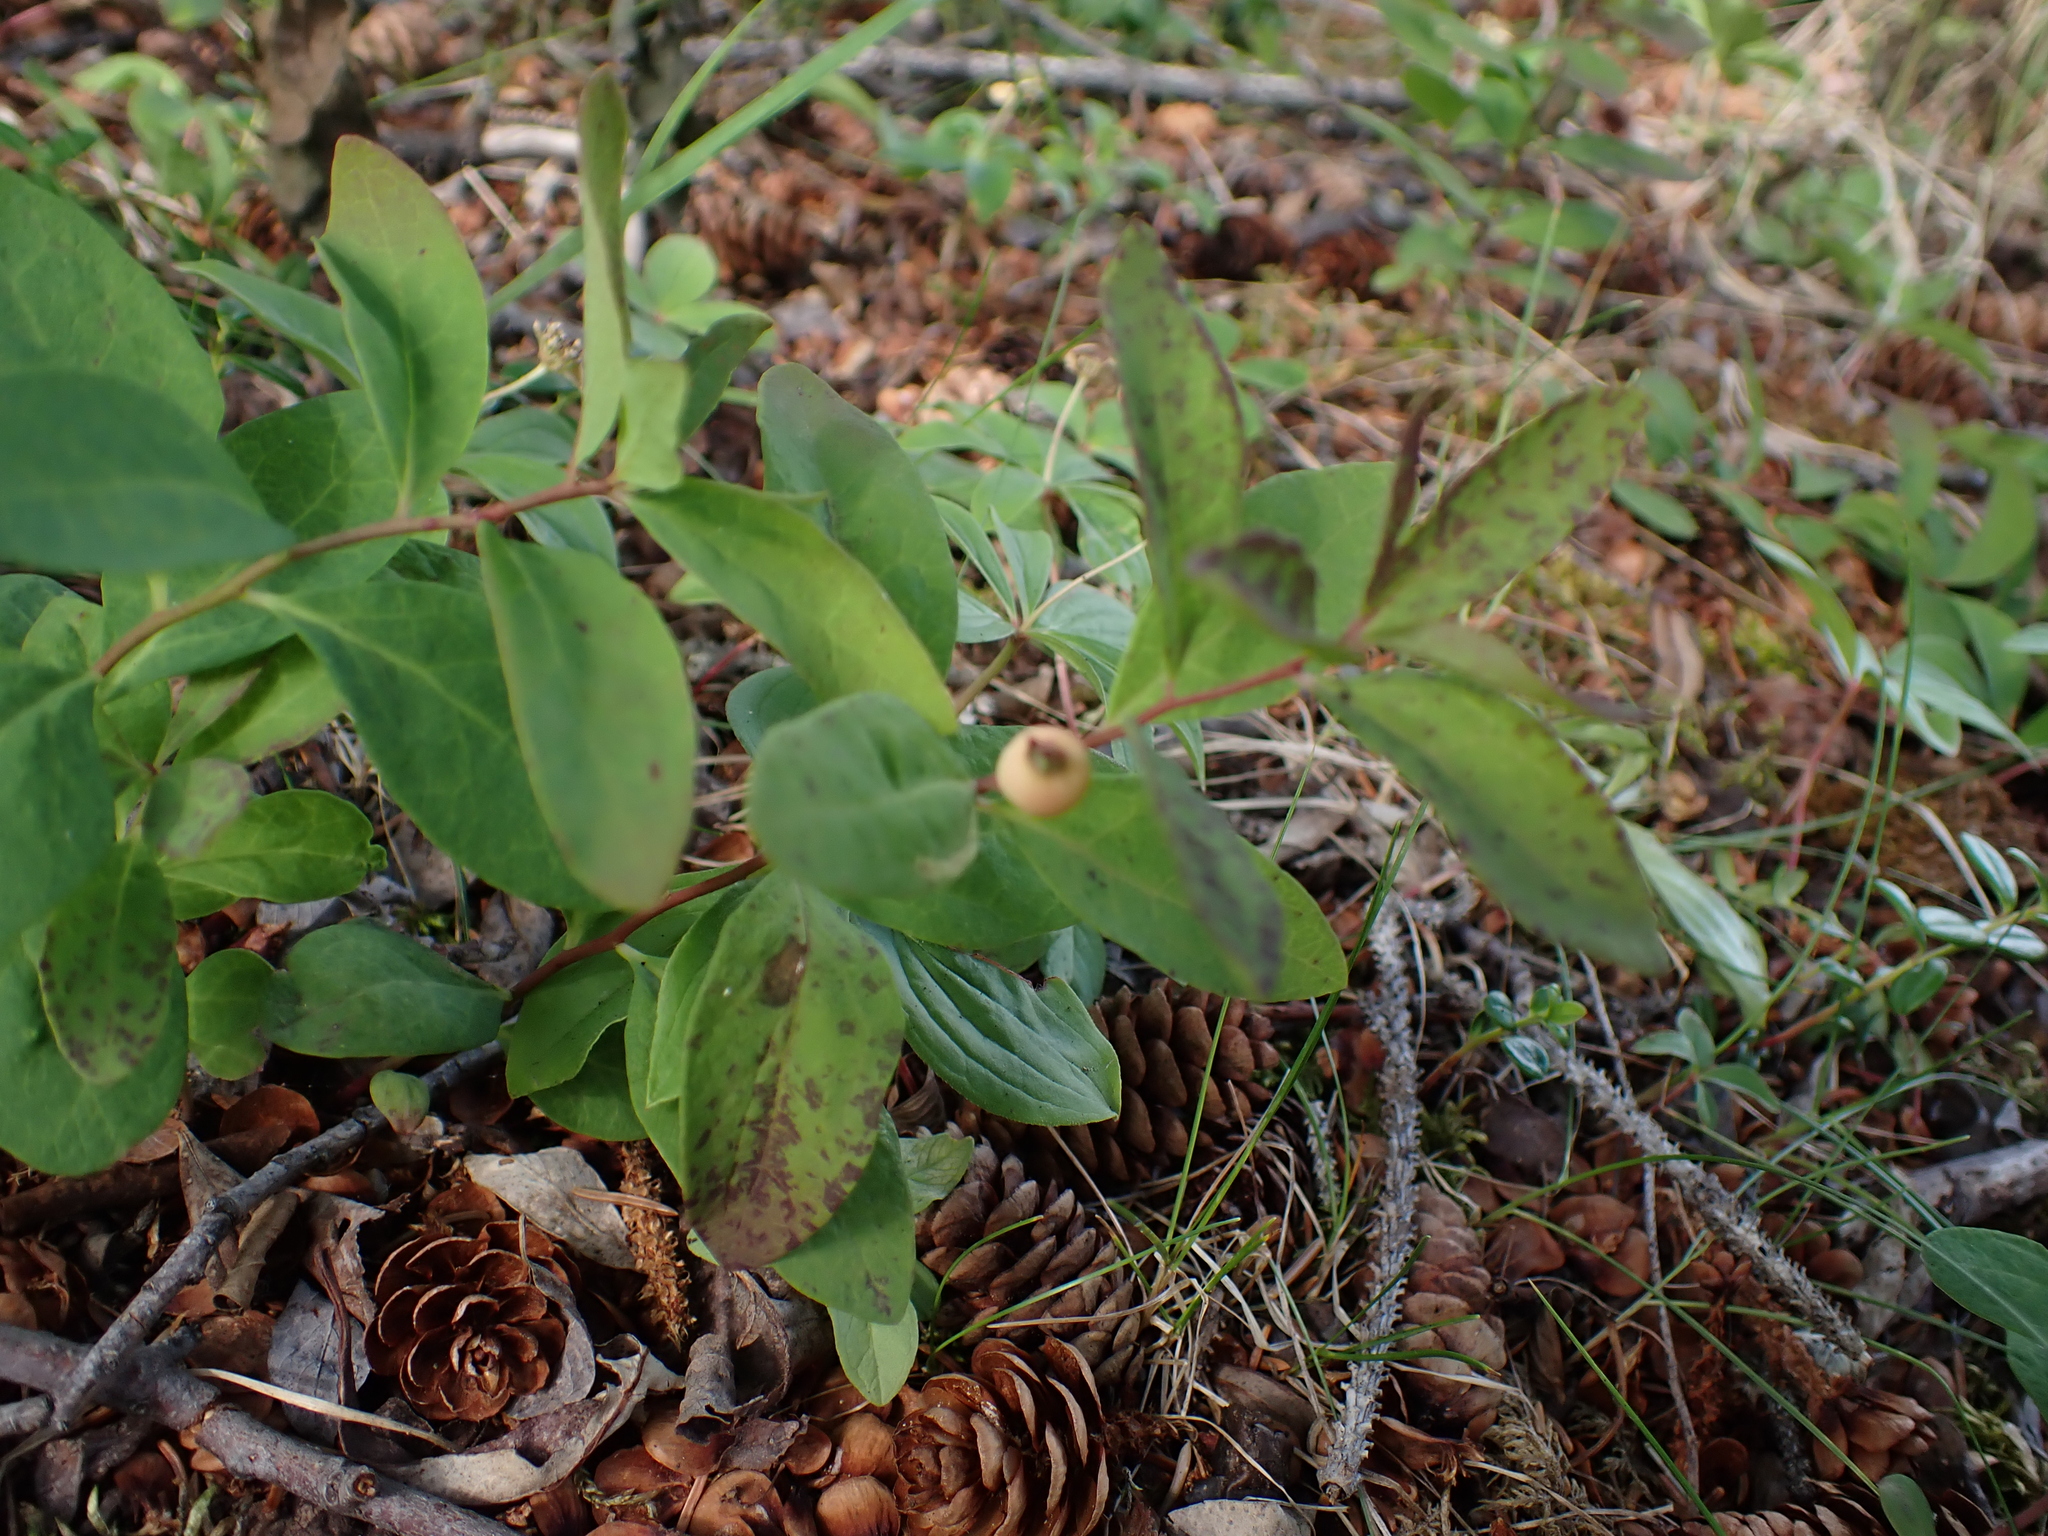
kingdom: Plantae
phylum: Tracheophyta
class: Magnoliopsida
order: Santalales
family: Comandraceae
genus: Geocaulon
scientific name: Geocaulon lividum
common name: Earthberry
